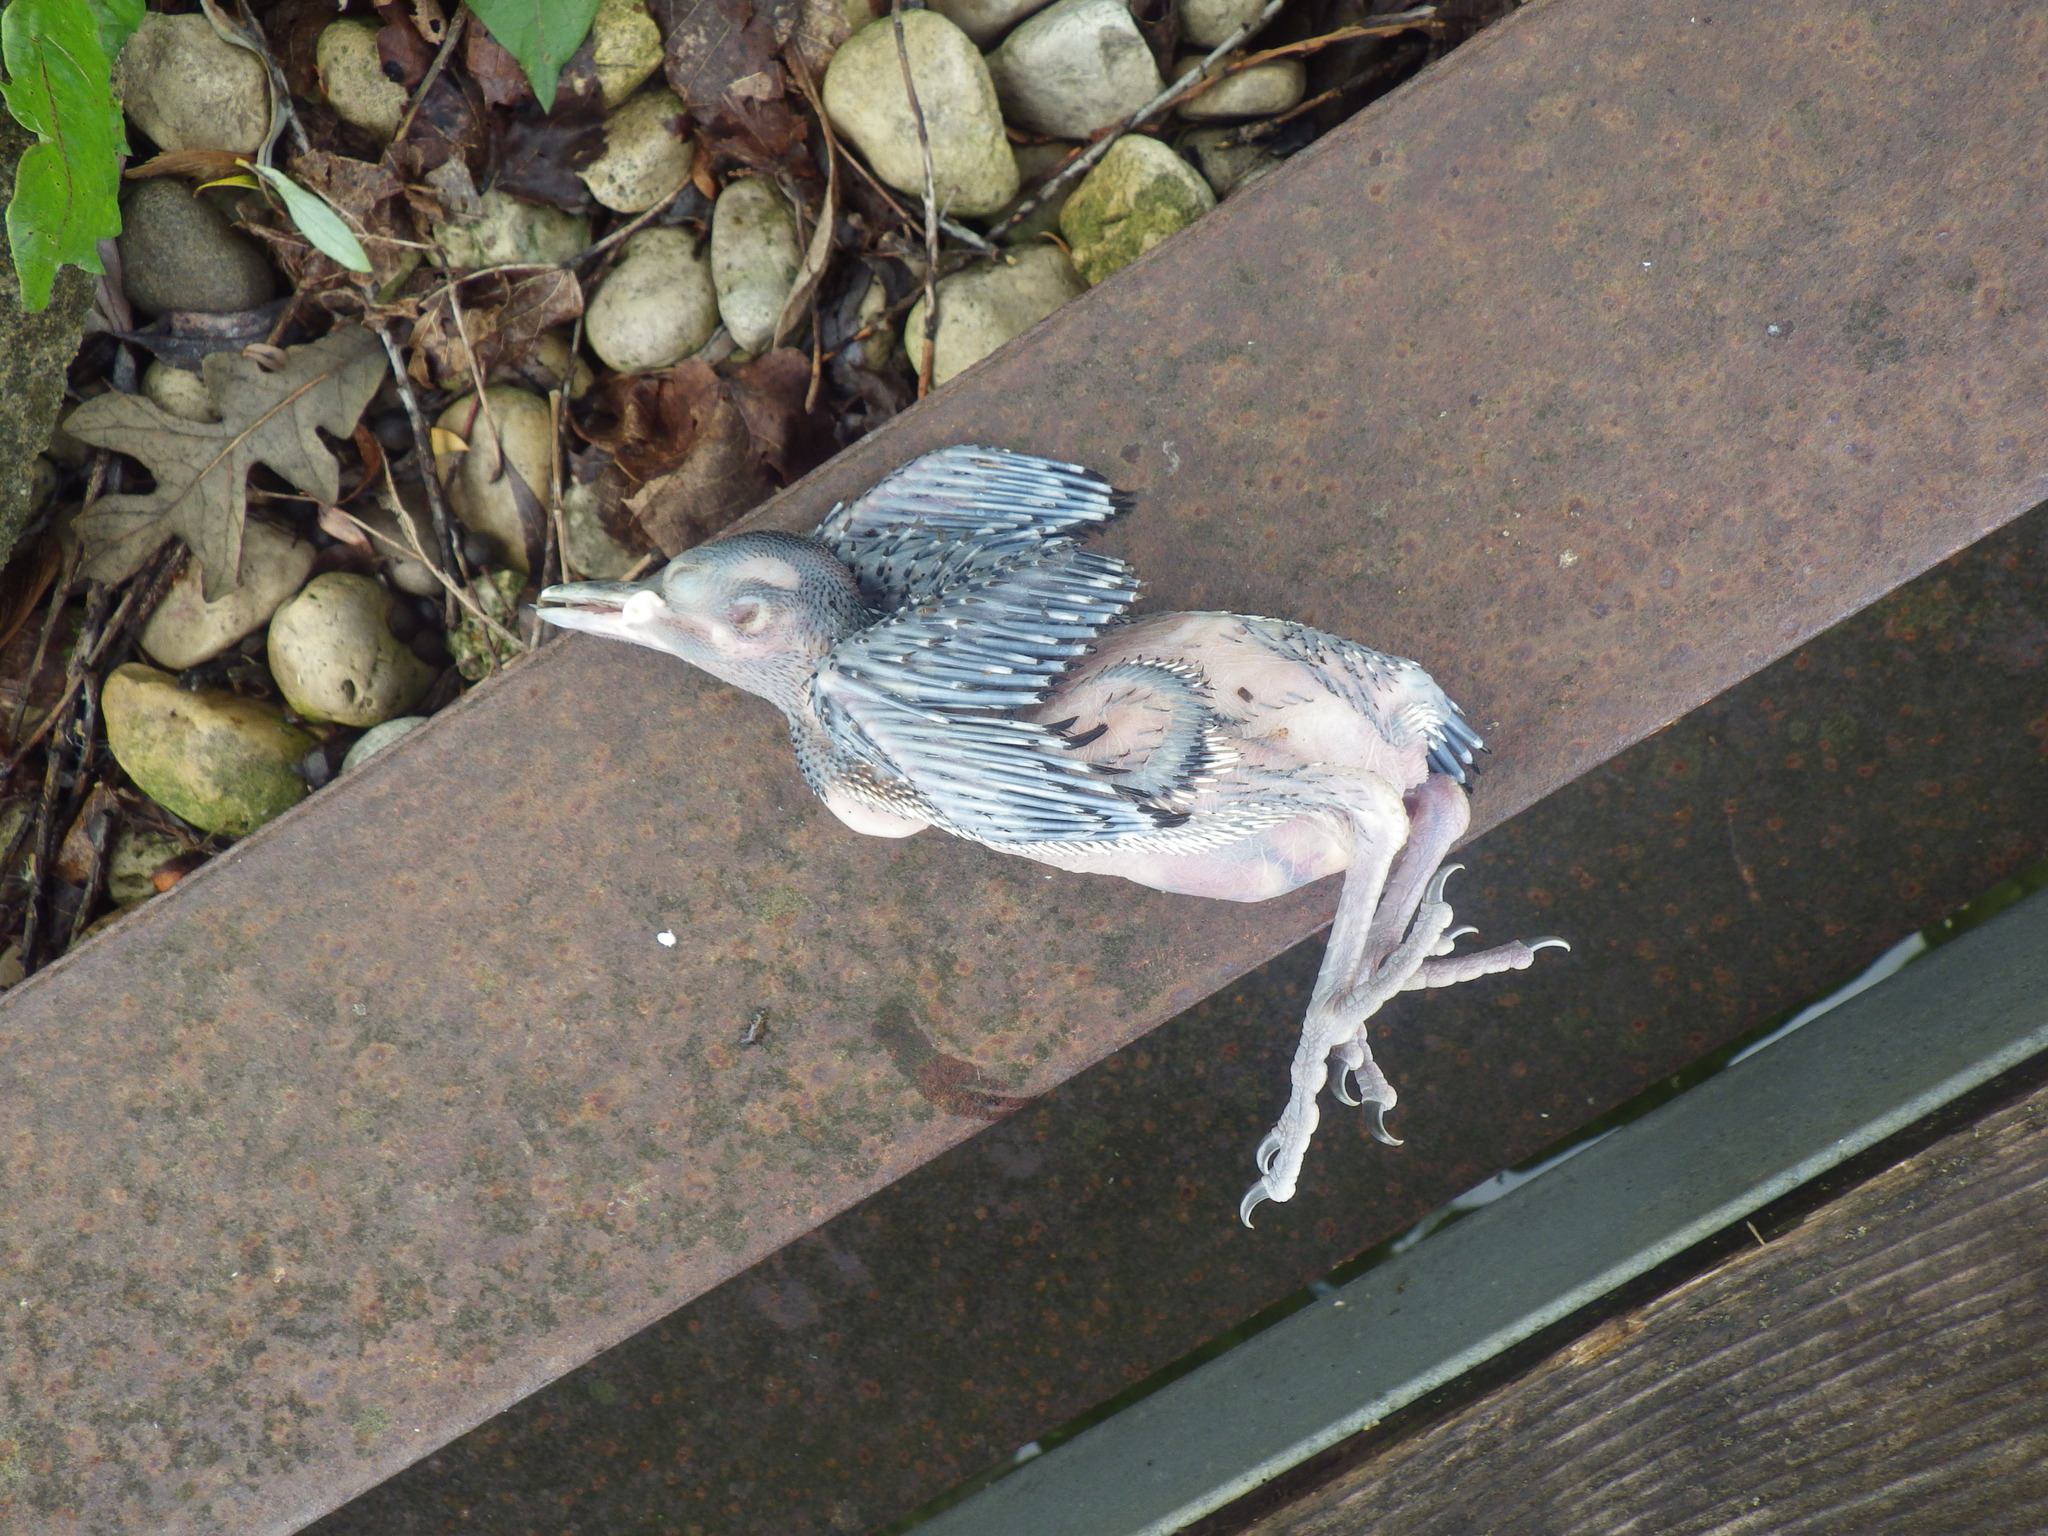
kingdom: Animalia
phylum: Chordata
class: Aves
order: Passeriformes
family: Icteridae
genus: Quiscalus
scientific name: Quiscalus quiscula
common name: Common grackle
